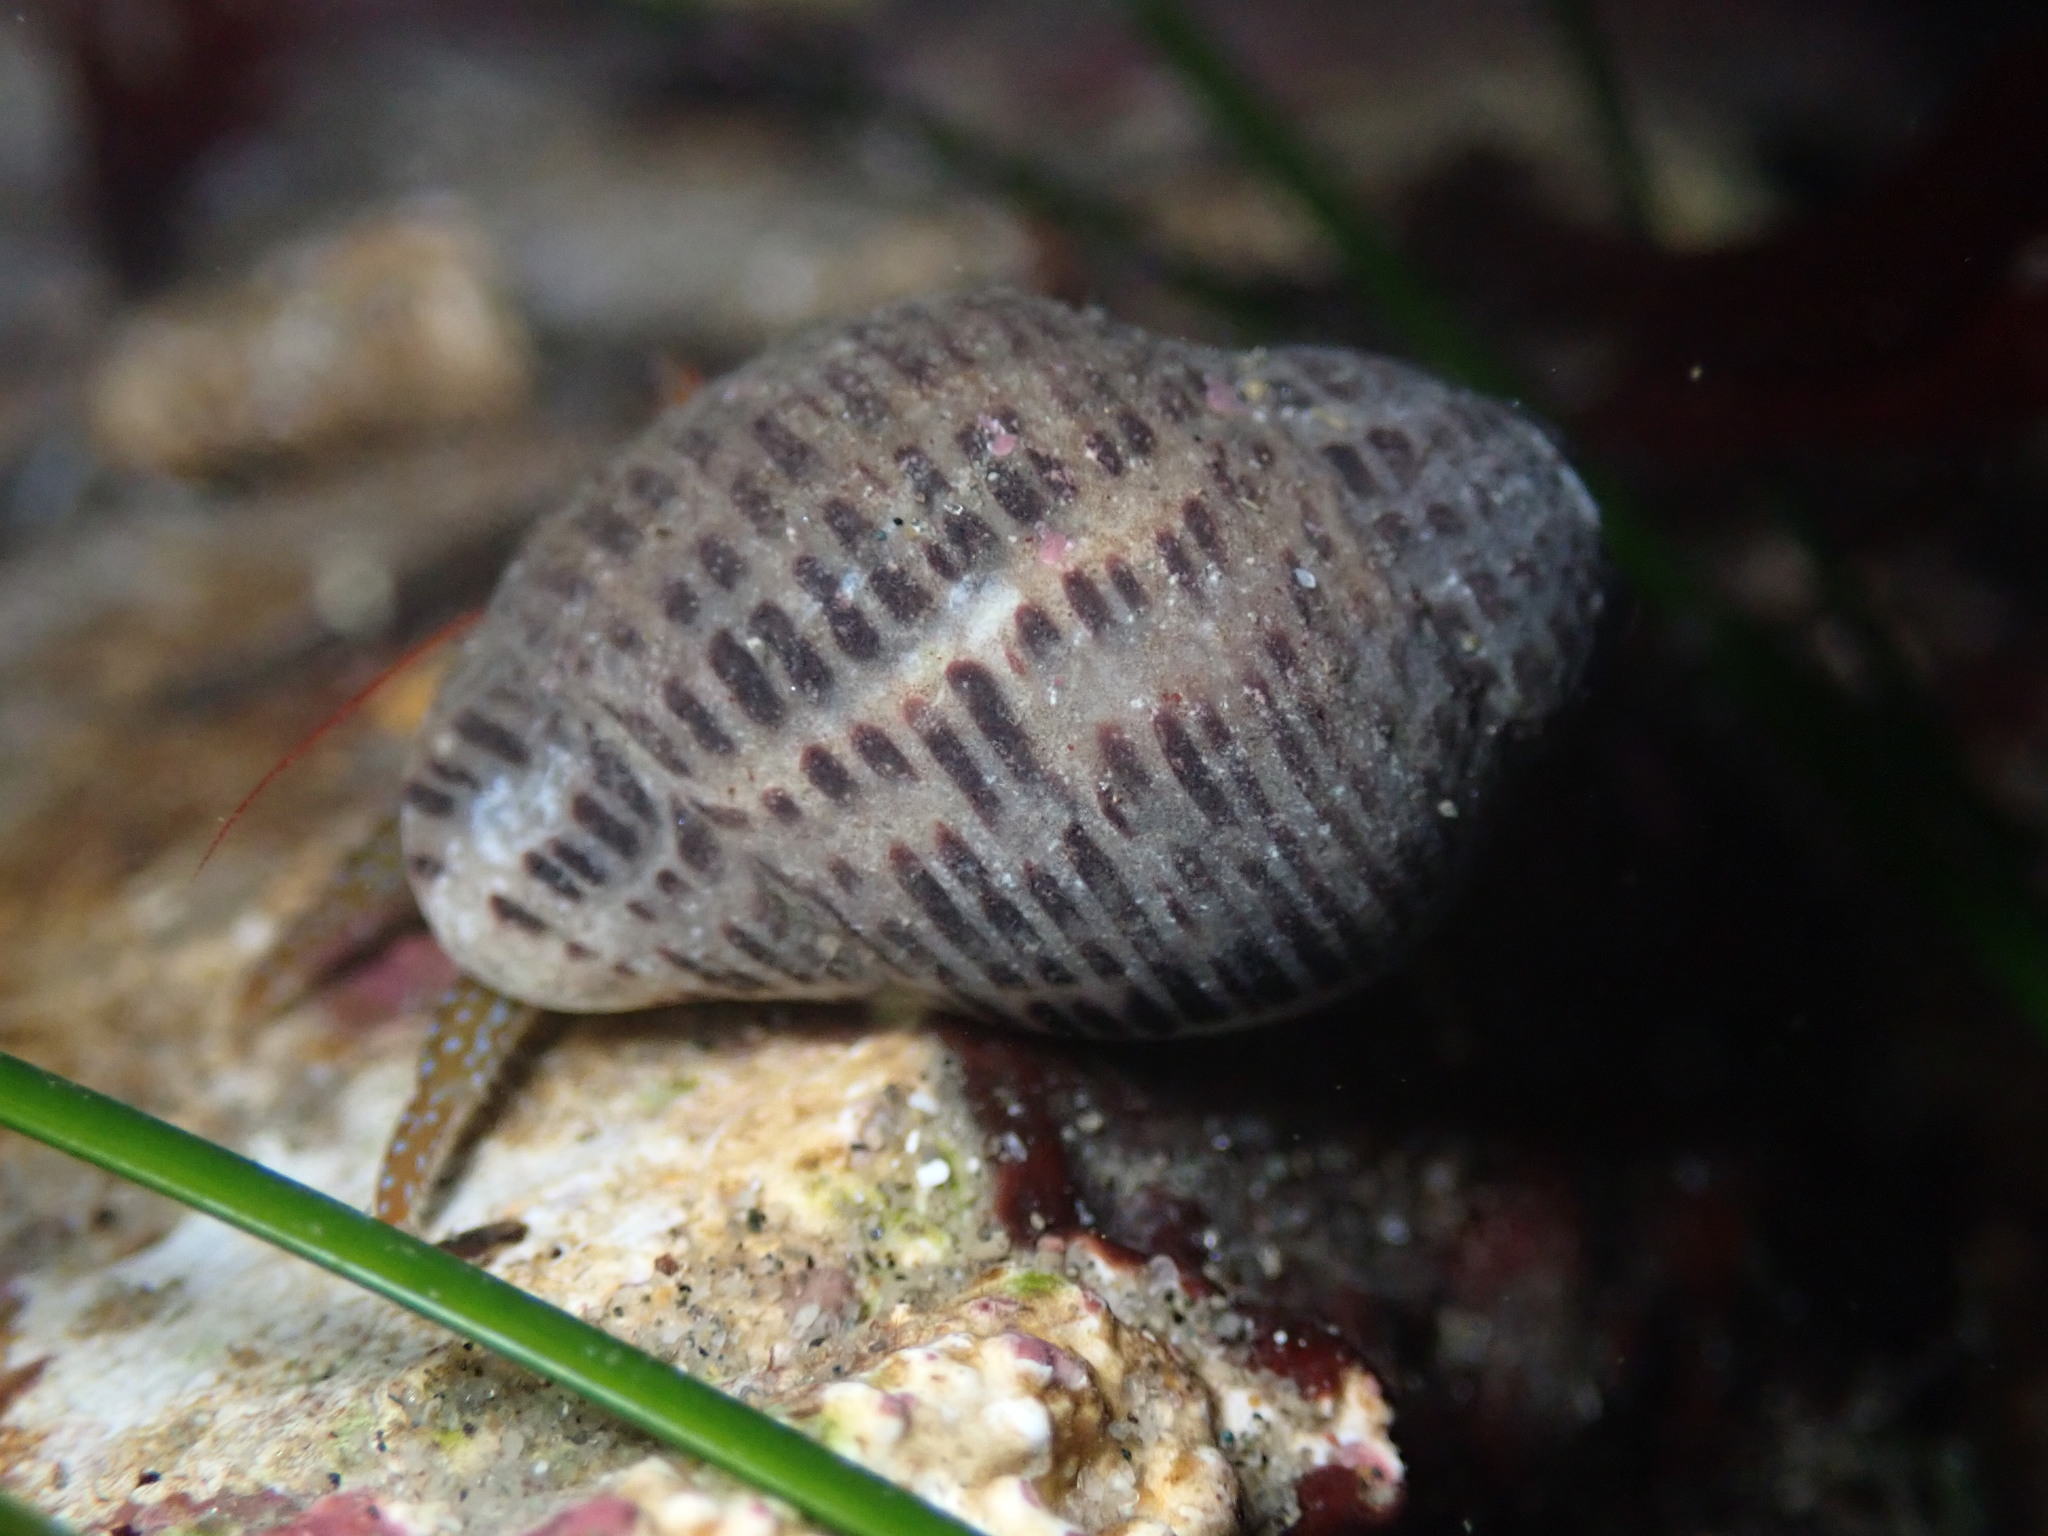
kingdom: Animalia
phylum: Mollusca
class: Gastropoda
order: Neogastropoda
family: Muricidae
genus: Acanthinucella
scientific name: Acanthinucella punctulata
